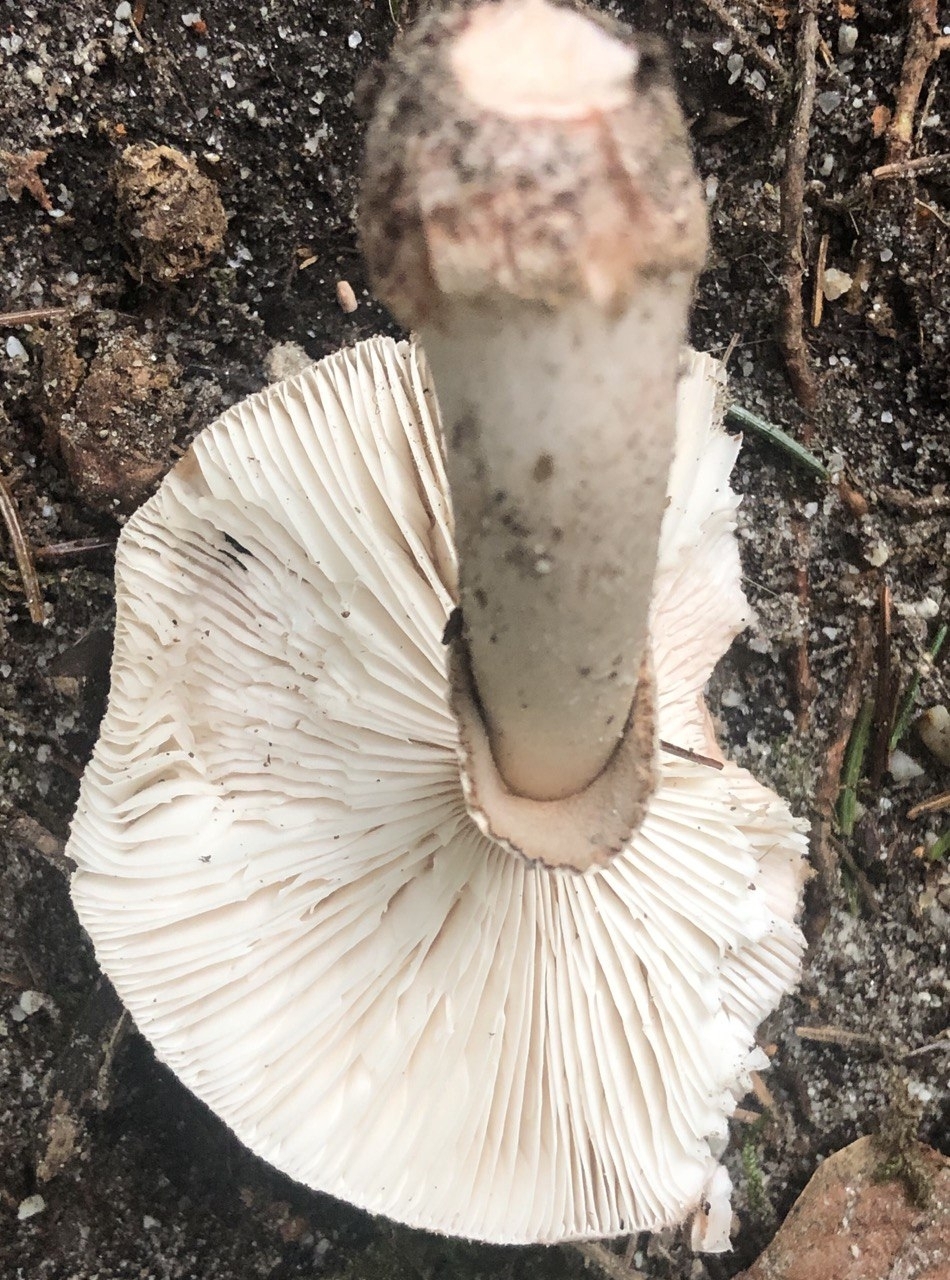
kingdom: Fungi
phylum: Basidiomycota
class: Agaricomycetes
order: Agaricales
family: Amanitaceae
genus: Amanita
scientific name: Amanita rubescens
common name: Blusher
